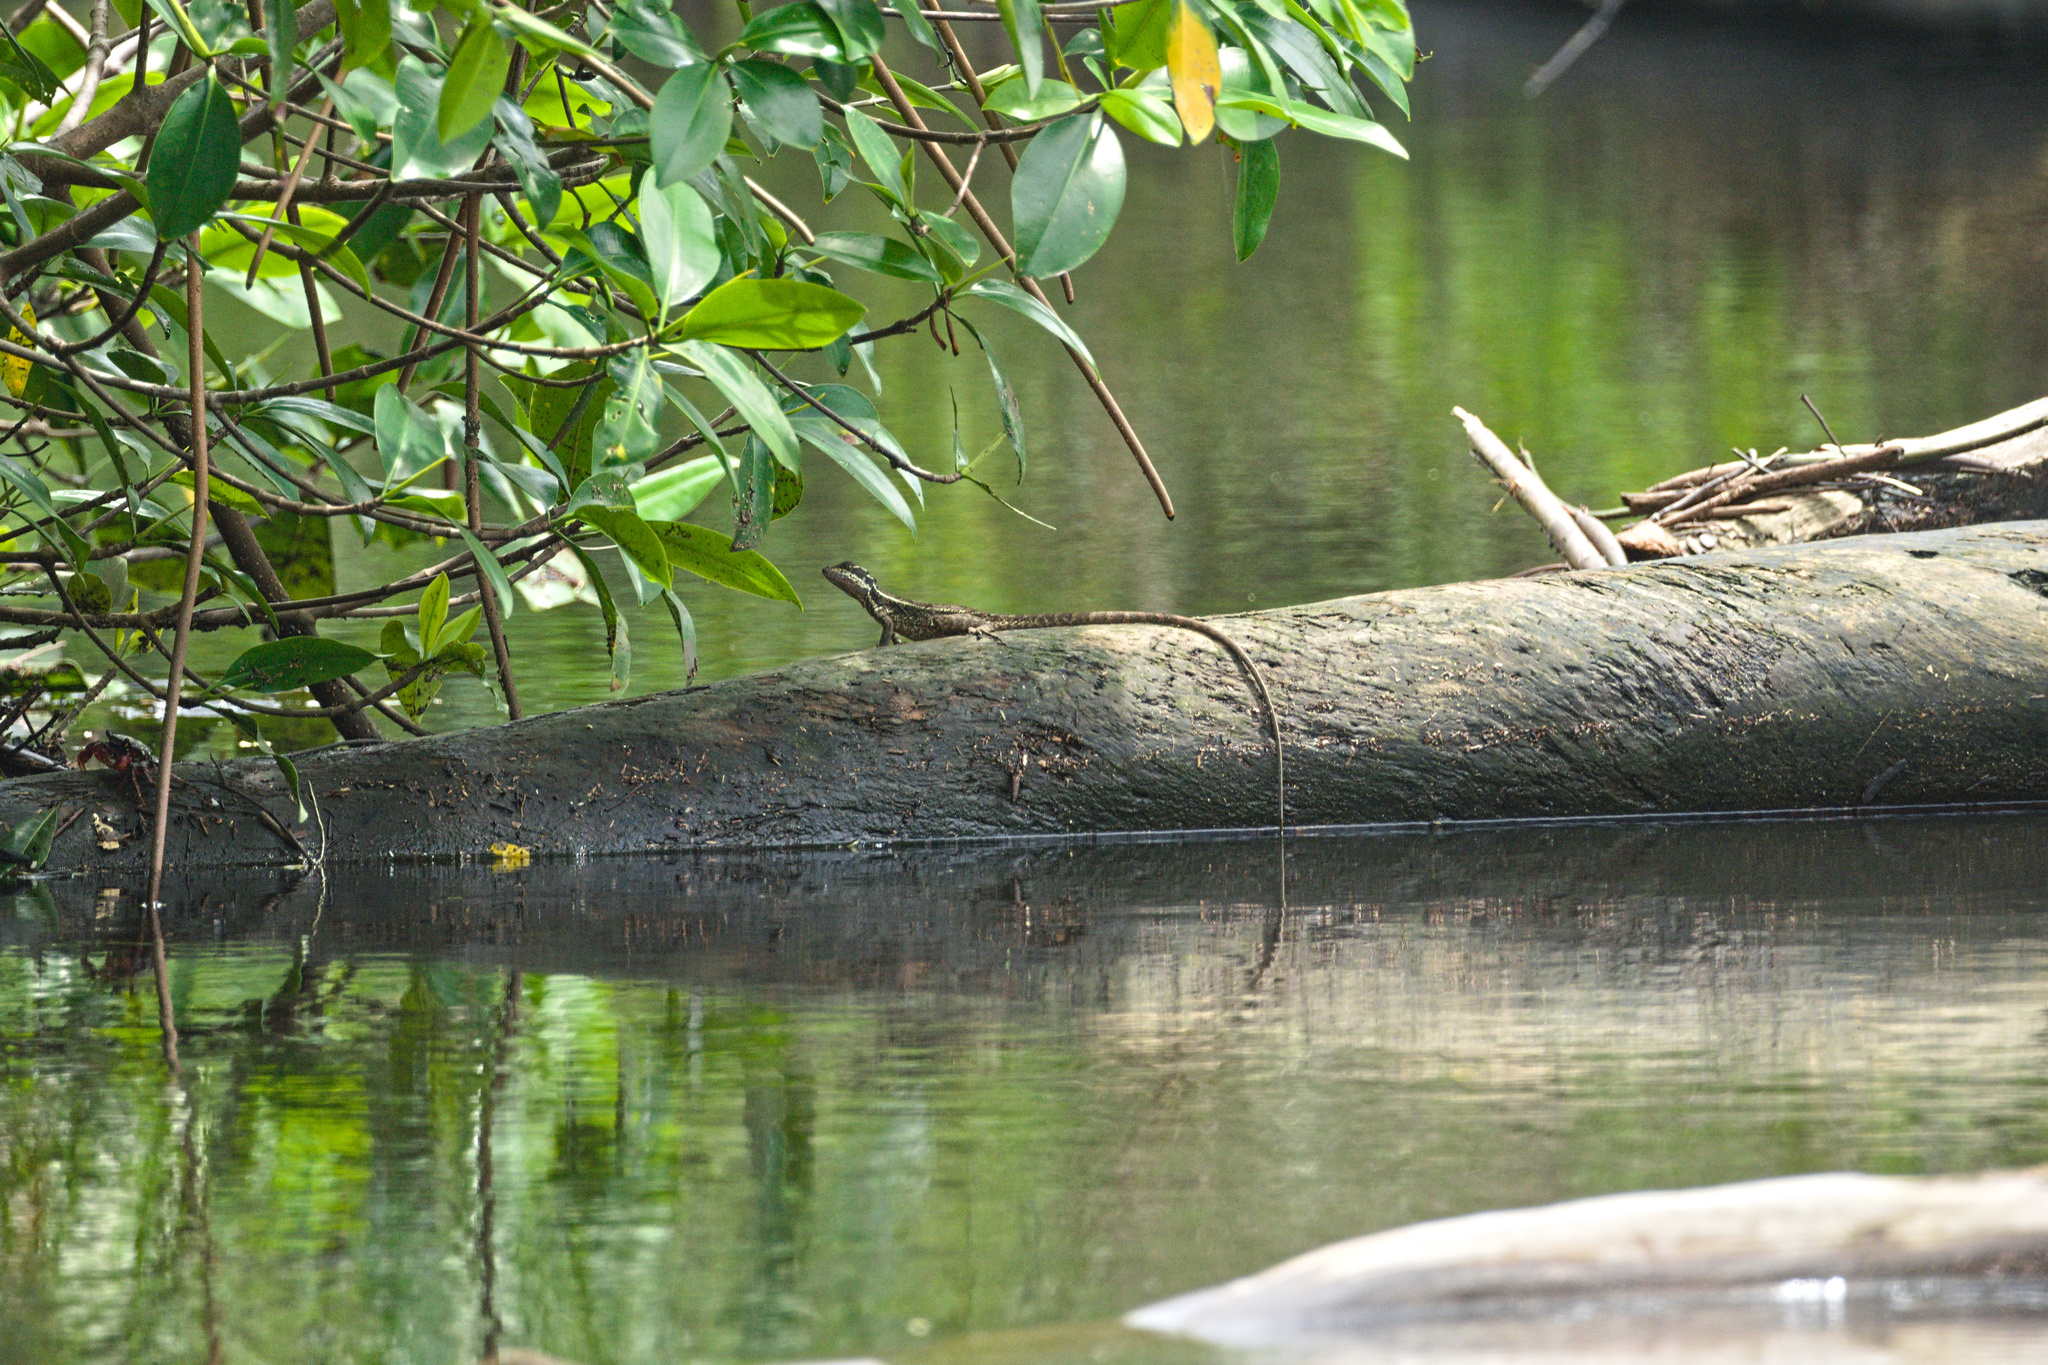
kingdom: Animalia
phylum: Chordata
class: Squamata
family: Corytophanidae
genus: Basiliscus
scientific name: Basiliscus basiliscus
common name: Common basilisk
